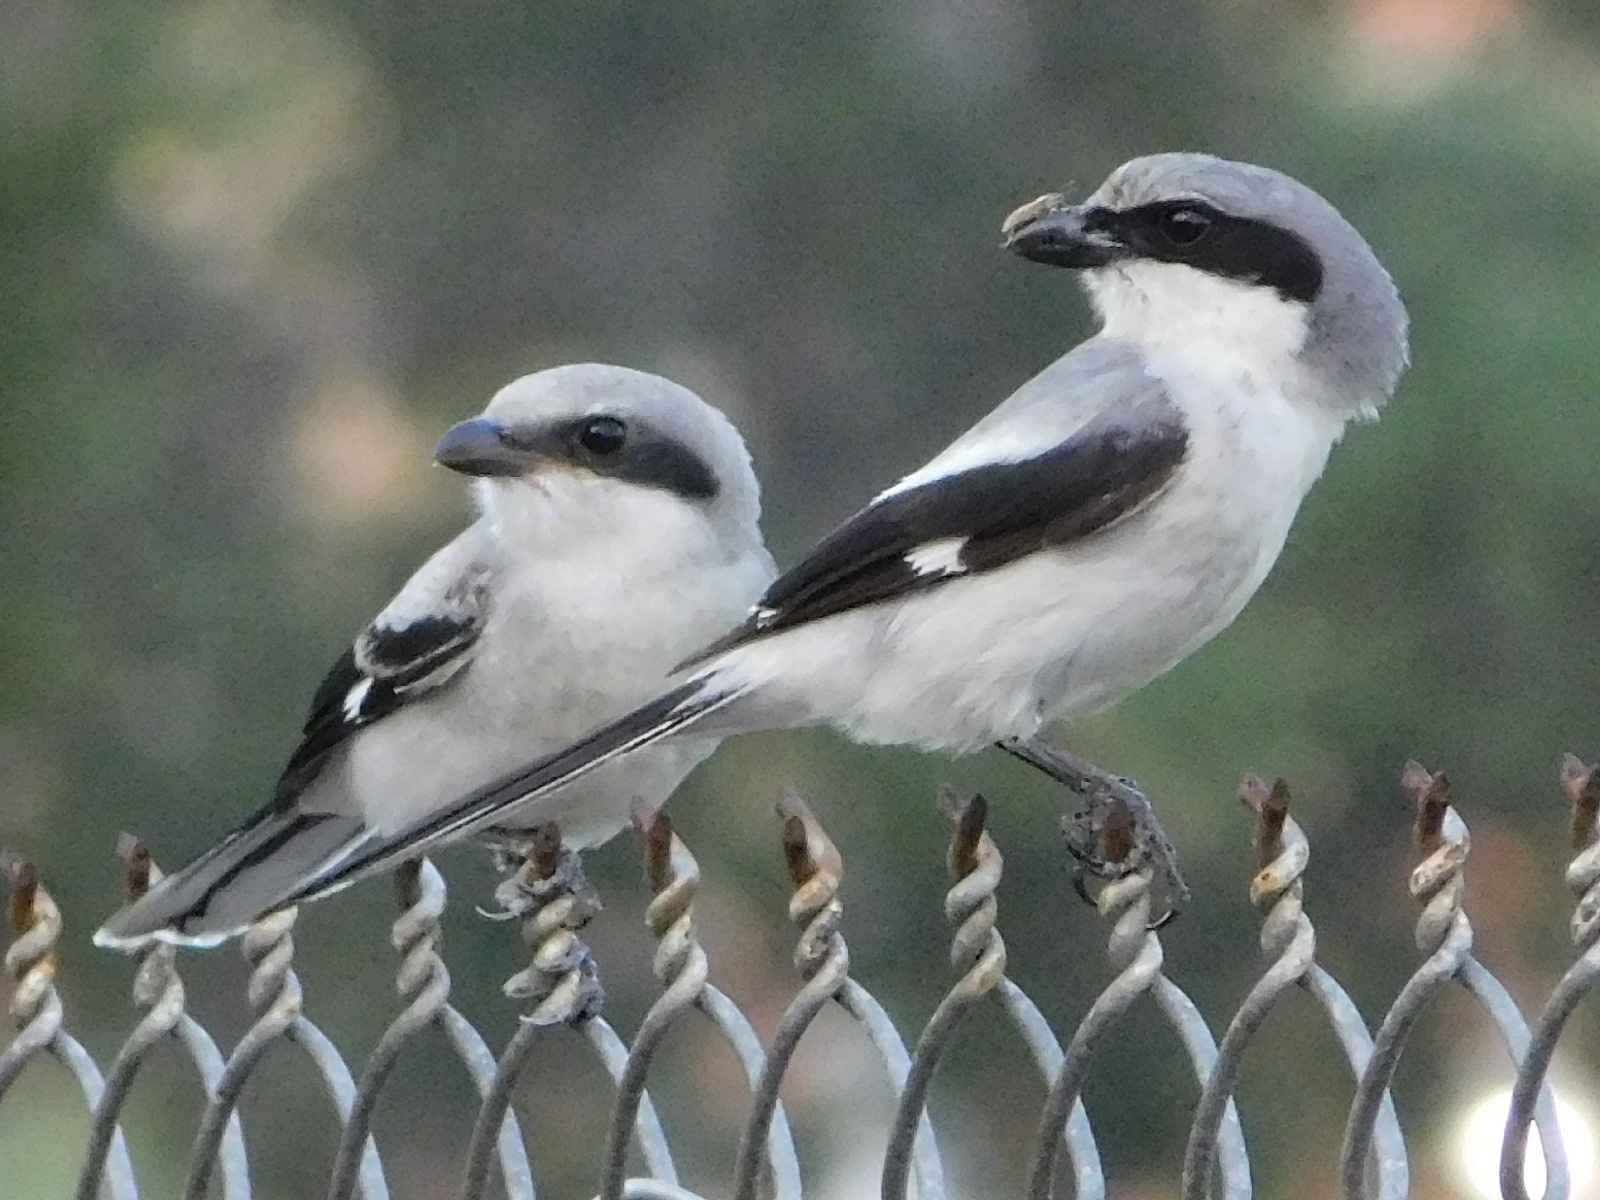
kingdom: Animalia
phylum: Chordata
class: Aves
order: Passeriformes
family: Laniidae
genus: Lanius
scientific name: Lanius ludovicianus
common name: Loggerhead shrike
